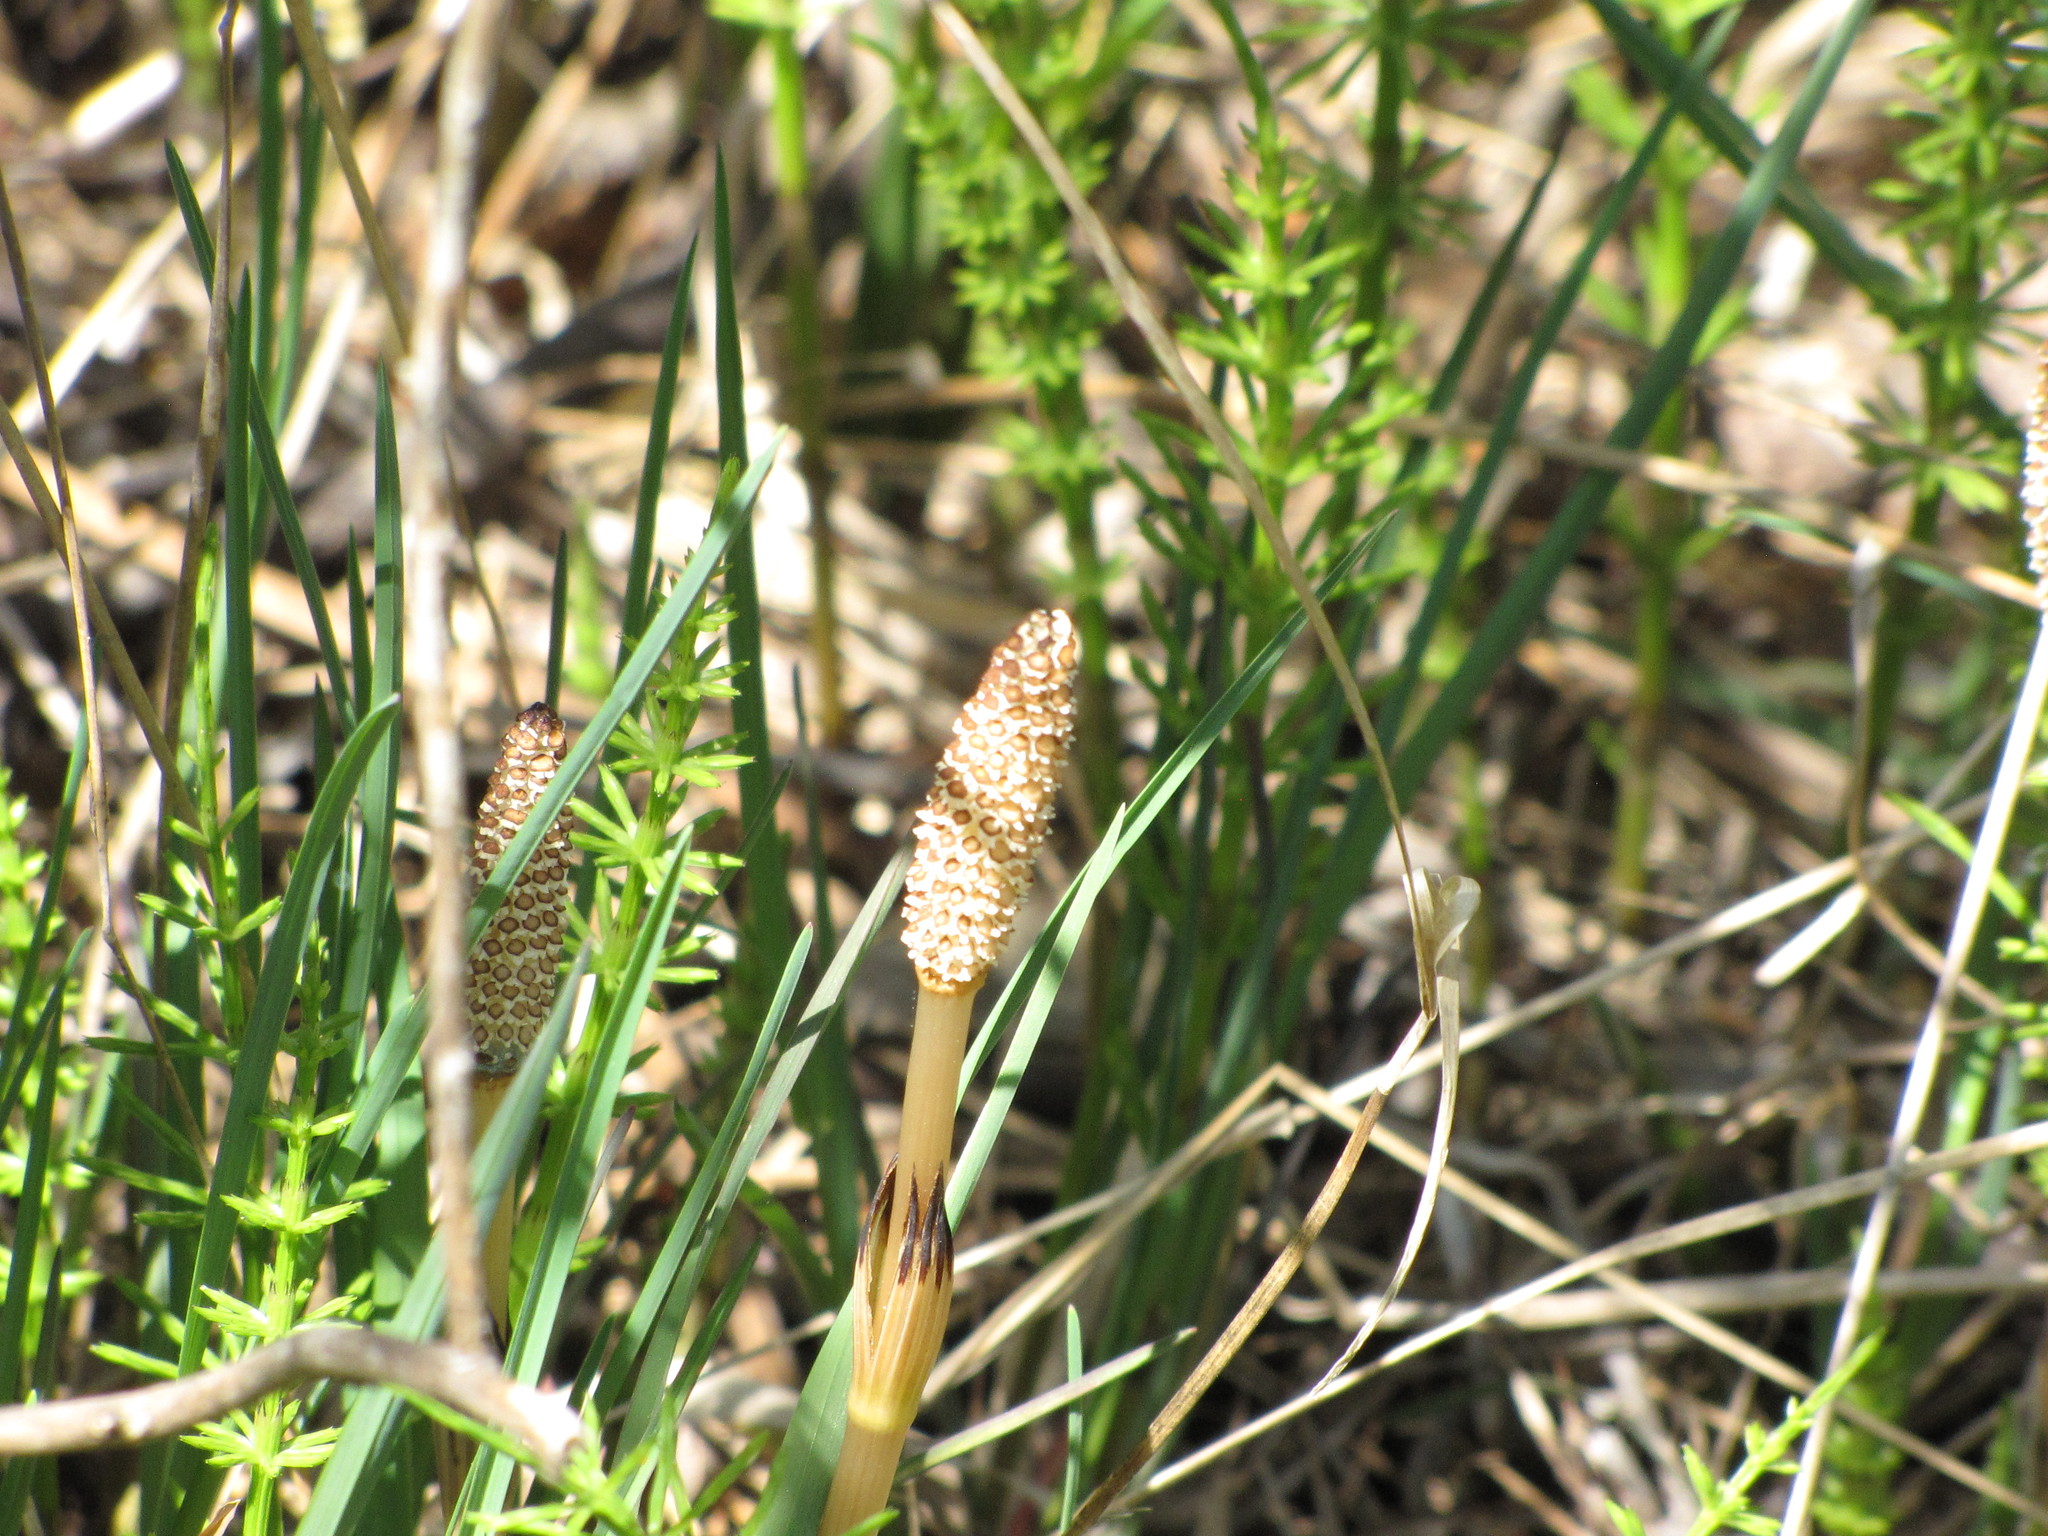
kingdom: Plantae
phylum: Tracheophyta
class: Polypodiopsida
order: Equisetales
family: Equisetaceae
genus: Equisetum
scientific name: Equisetum arvense
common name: Field horsetail
